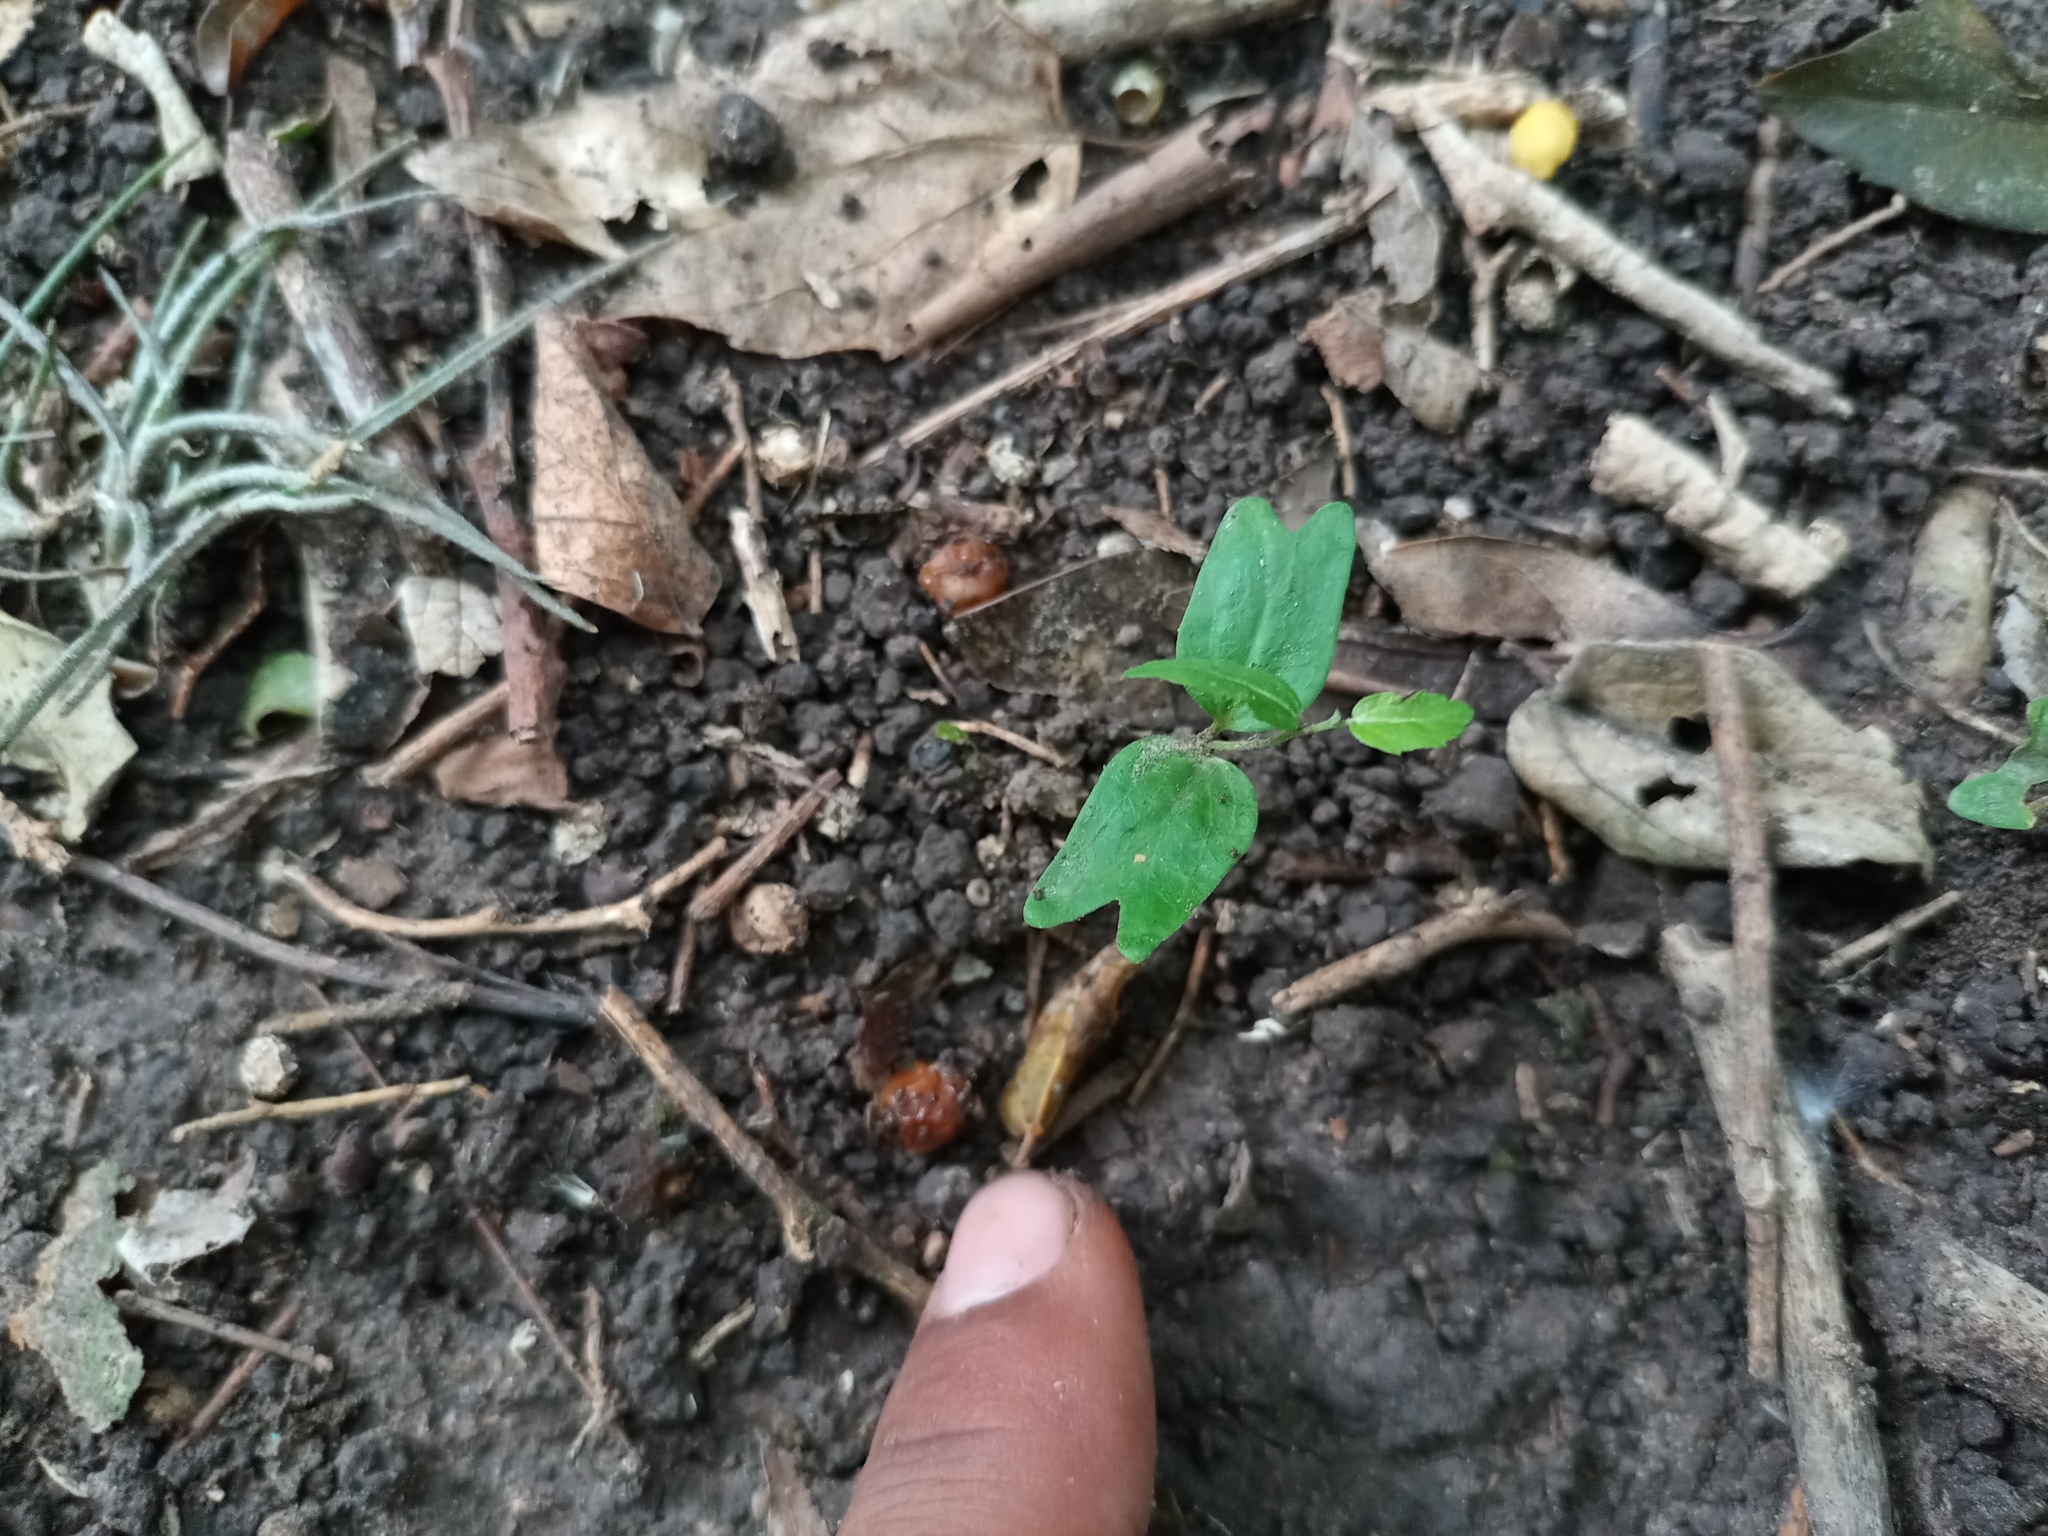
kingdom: Plantae
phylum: Tracheophyta
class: Magnoliopsida
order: Rosales
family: Cannabaceae
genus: Celtis
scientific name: Celtis tala
